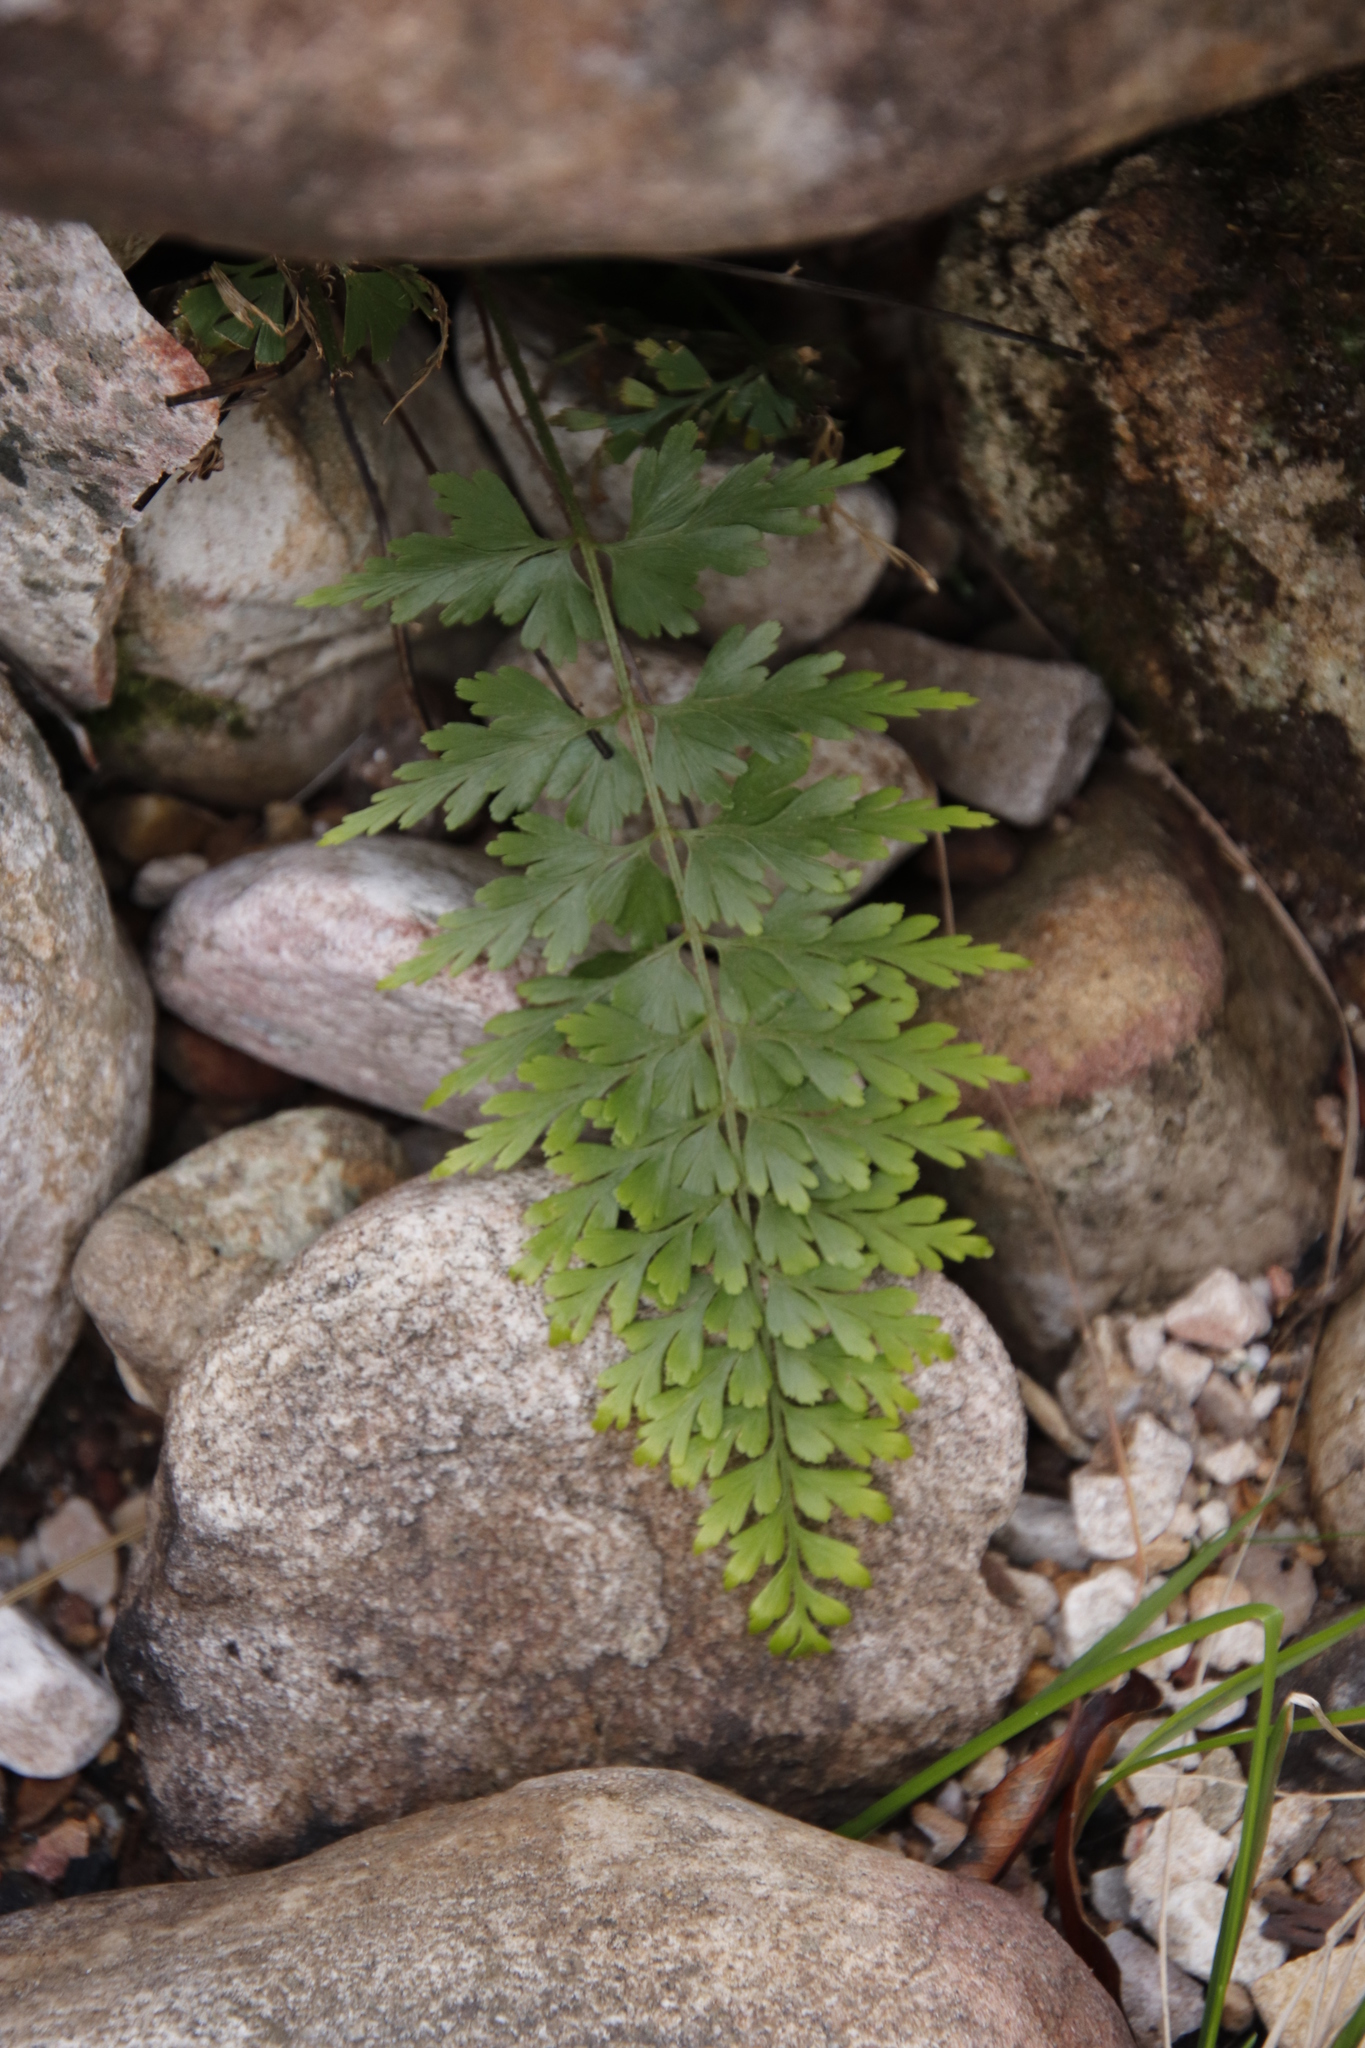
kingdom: Plantae
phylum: Tracheophyta
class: Polypodiopsida
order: Polypodiales
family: Aspleniaceae
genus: Asplenium
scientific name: Asplenium aethiopicum
